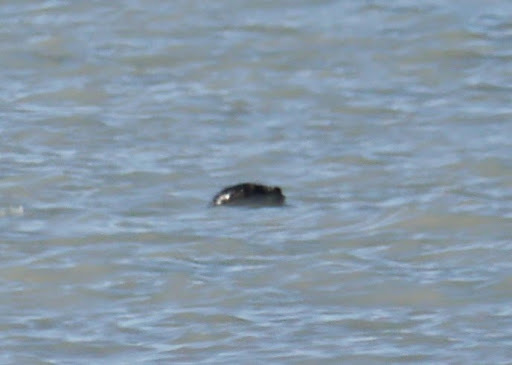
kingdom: Animalia
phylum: Chordata
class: Mammalia
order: Carnivora
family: Phocidae
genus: Phoca
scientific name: Phoca vitulina
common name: Harbor seal
